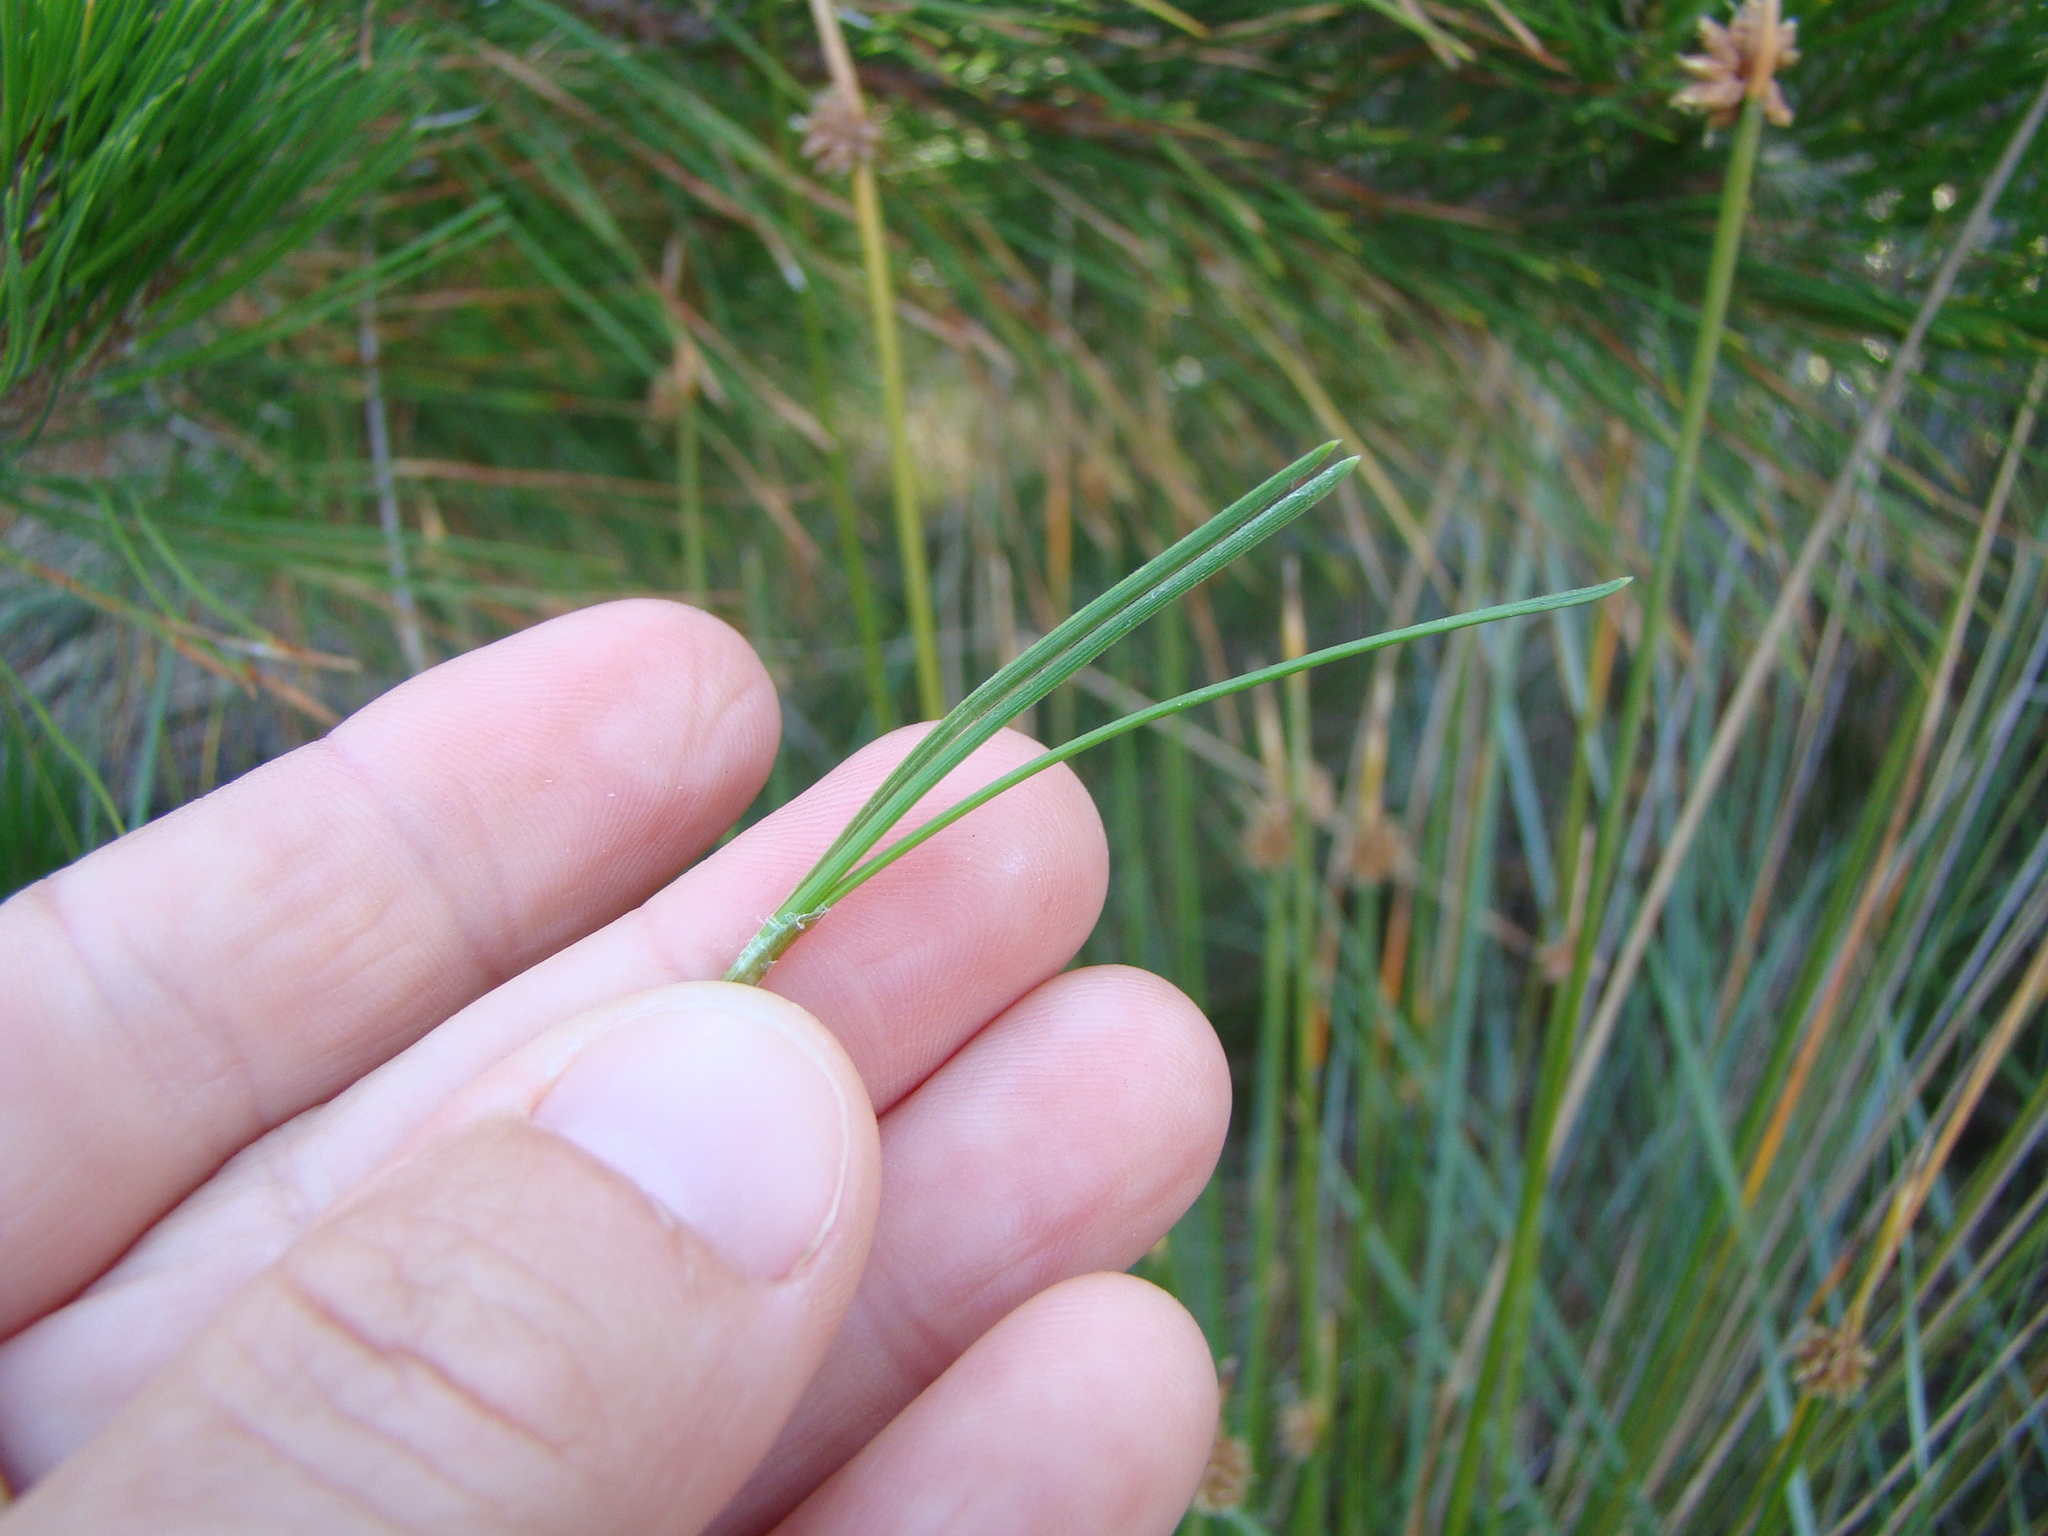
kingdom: Plantae
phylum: Tracheophyta
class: Pinopsida
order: Pinales
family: Pinaceae
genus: Pinus
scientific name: Pinus radiata
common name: Monterey pine
